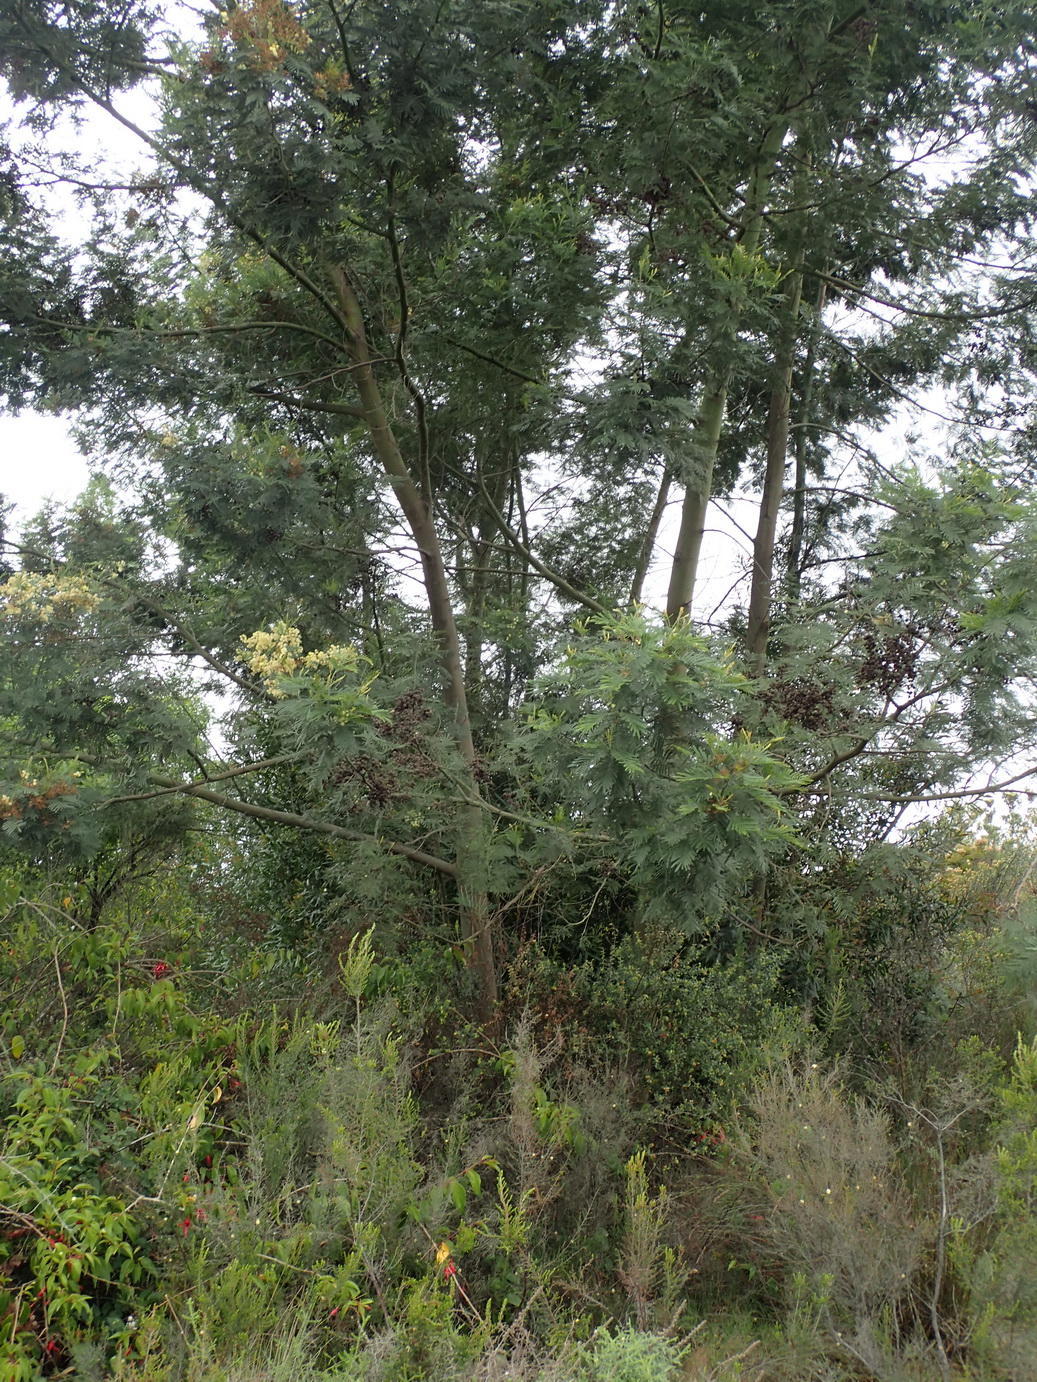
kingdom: Plantae
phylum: Tracheophyta
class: Magnoliopsida
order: Fabales
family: Fabaceae
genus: Acacia
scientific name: Acacia mearnsii
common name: Black wattle
